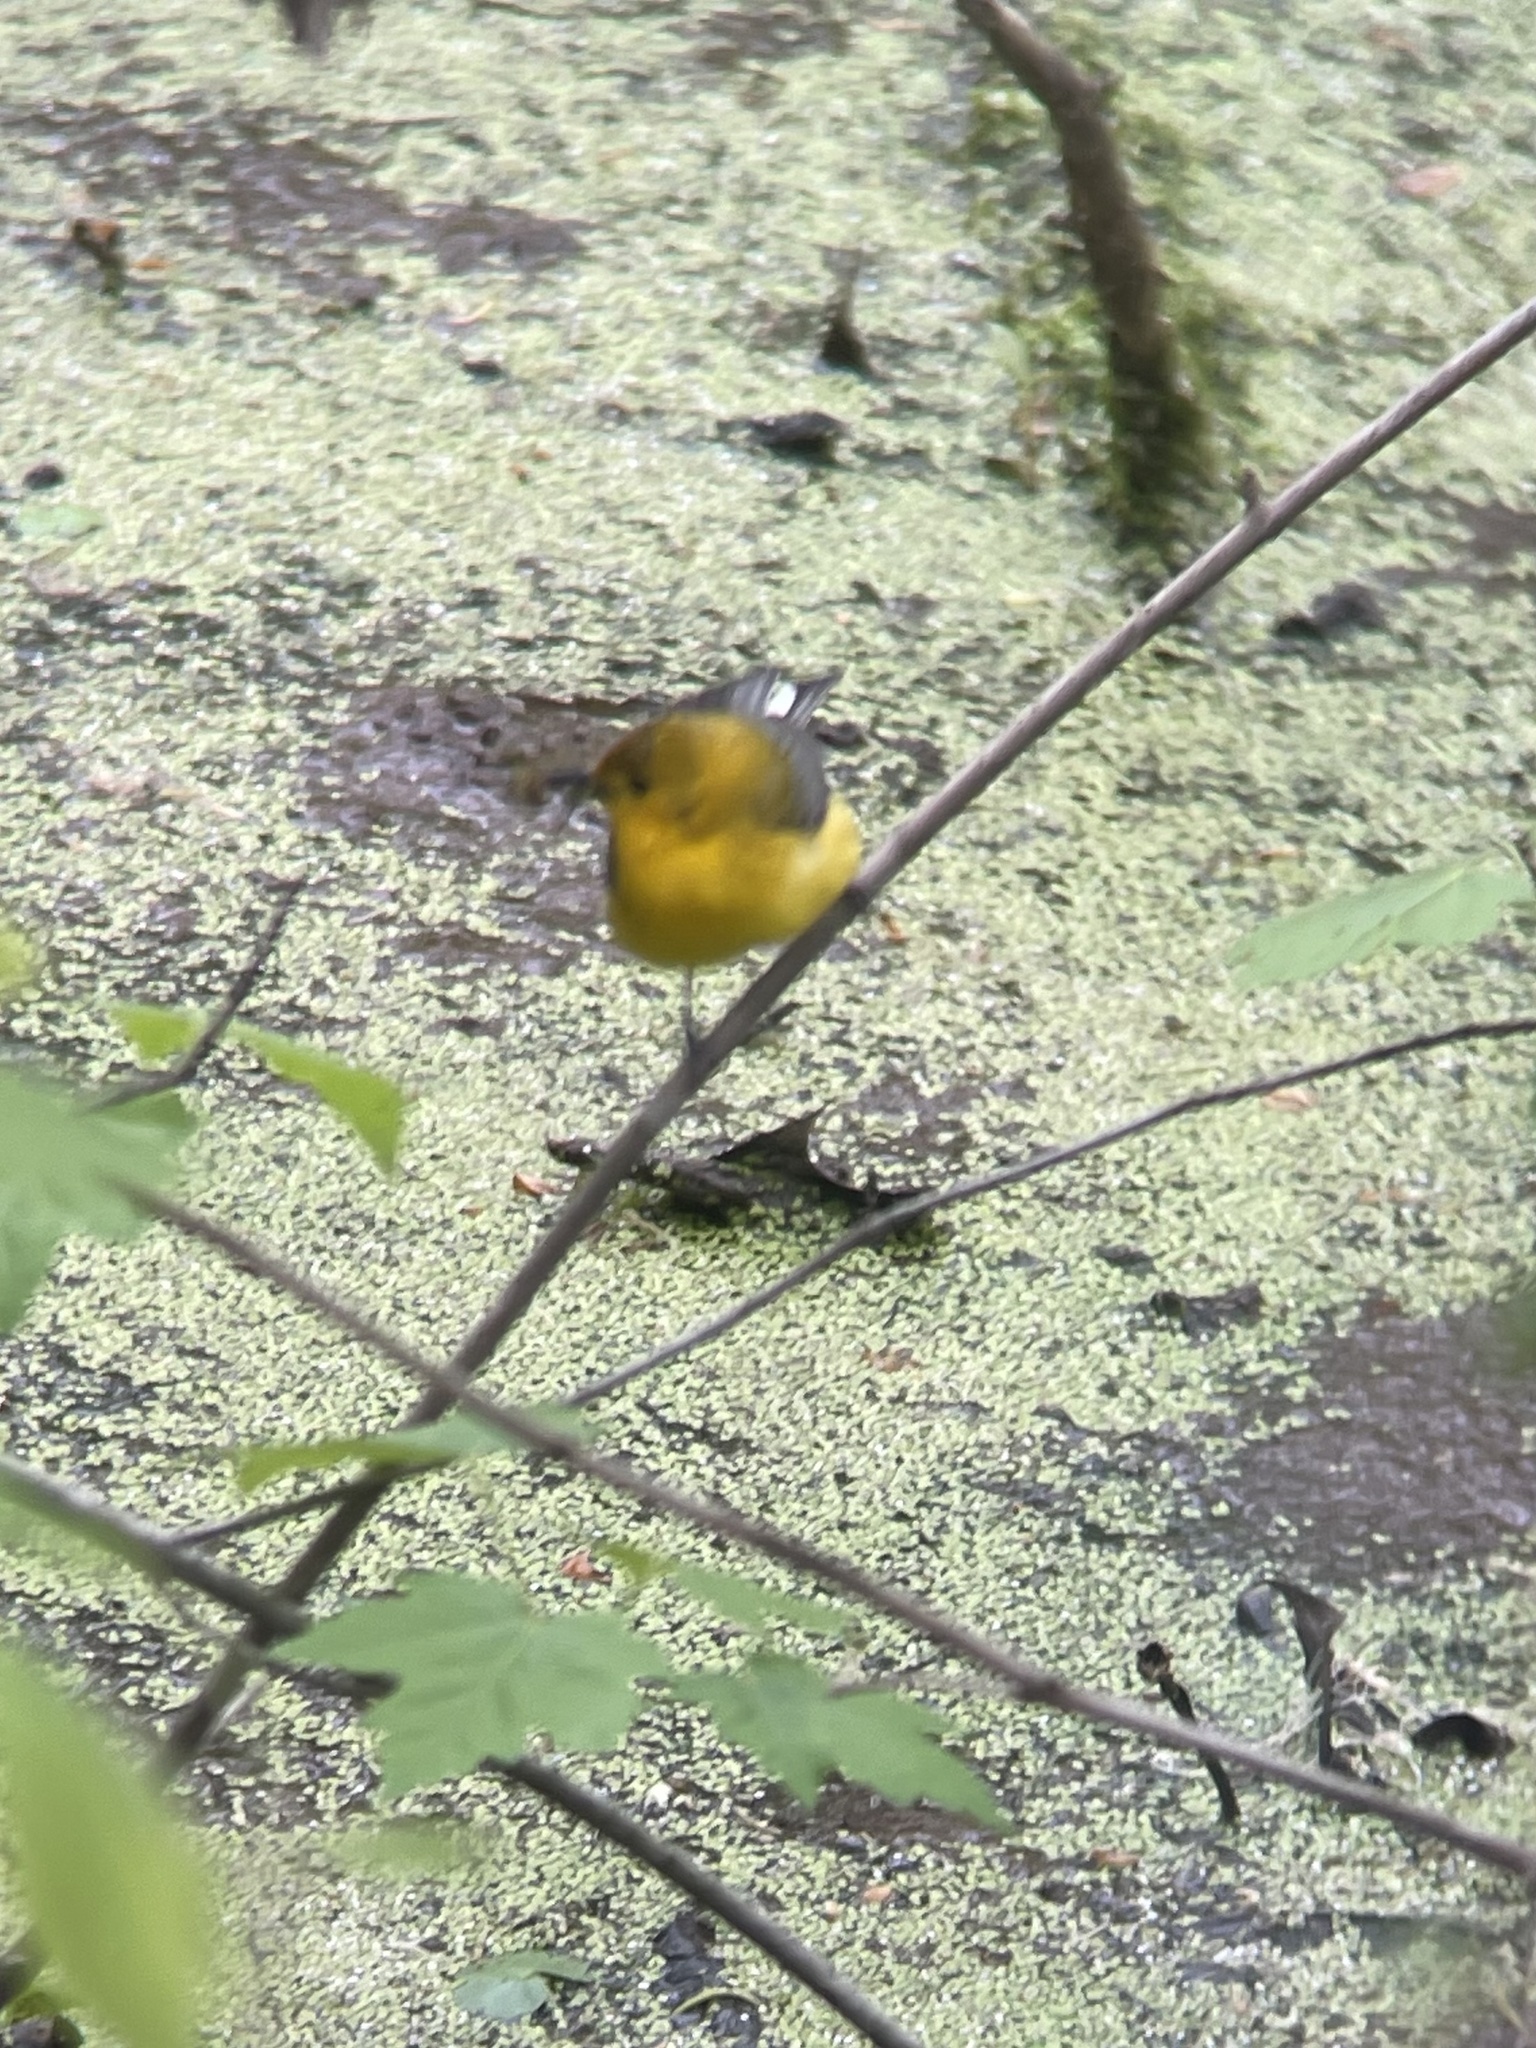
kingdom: Animalia
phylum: Chordata
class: Aves
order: Passeriformes
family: Parulidae
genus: Protonotaria
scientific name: Protonotaria citrea
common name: Prothonotary warbler
